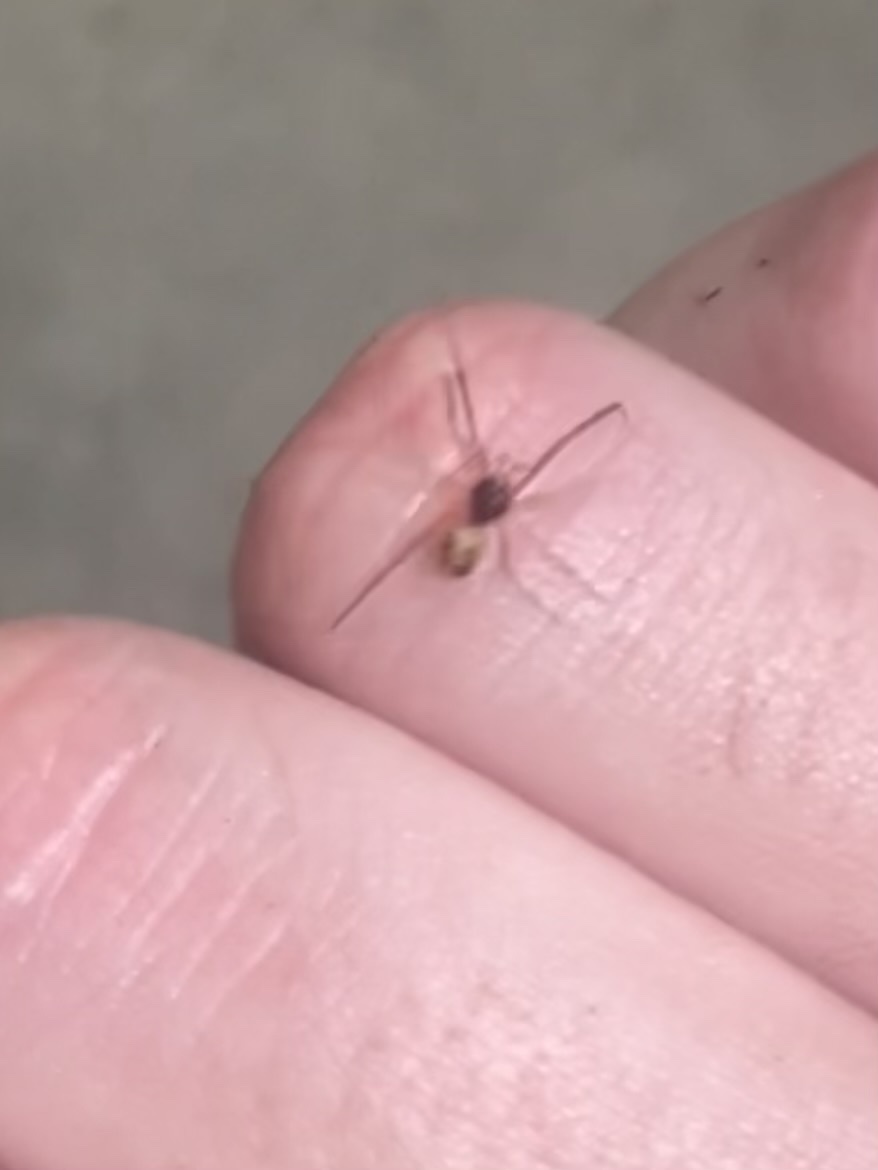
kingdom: Animalia
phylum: Arthropoda
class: Arachnida
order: Araneae
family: Theridiidae
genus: Steatoda
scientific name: Steatoda triangulosa
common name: Triangulate bud spider
